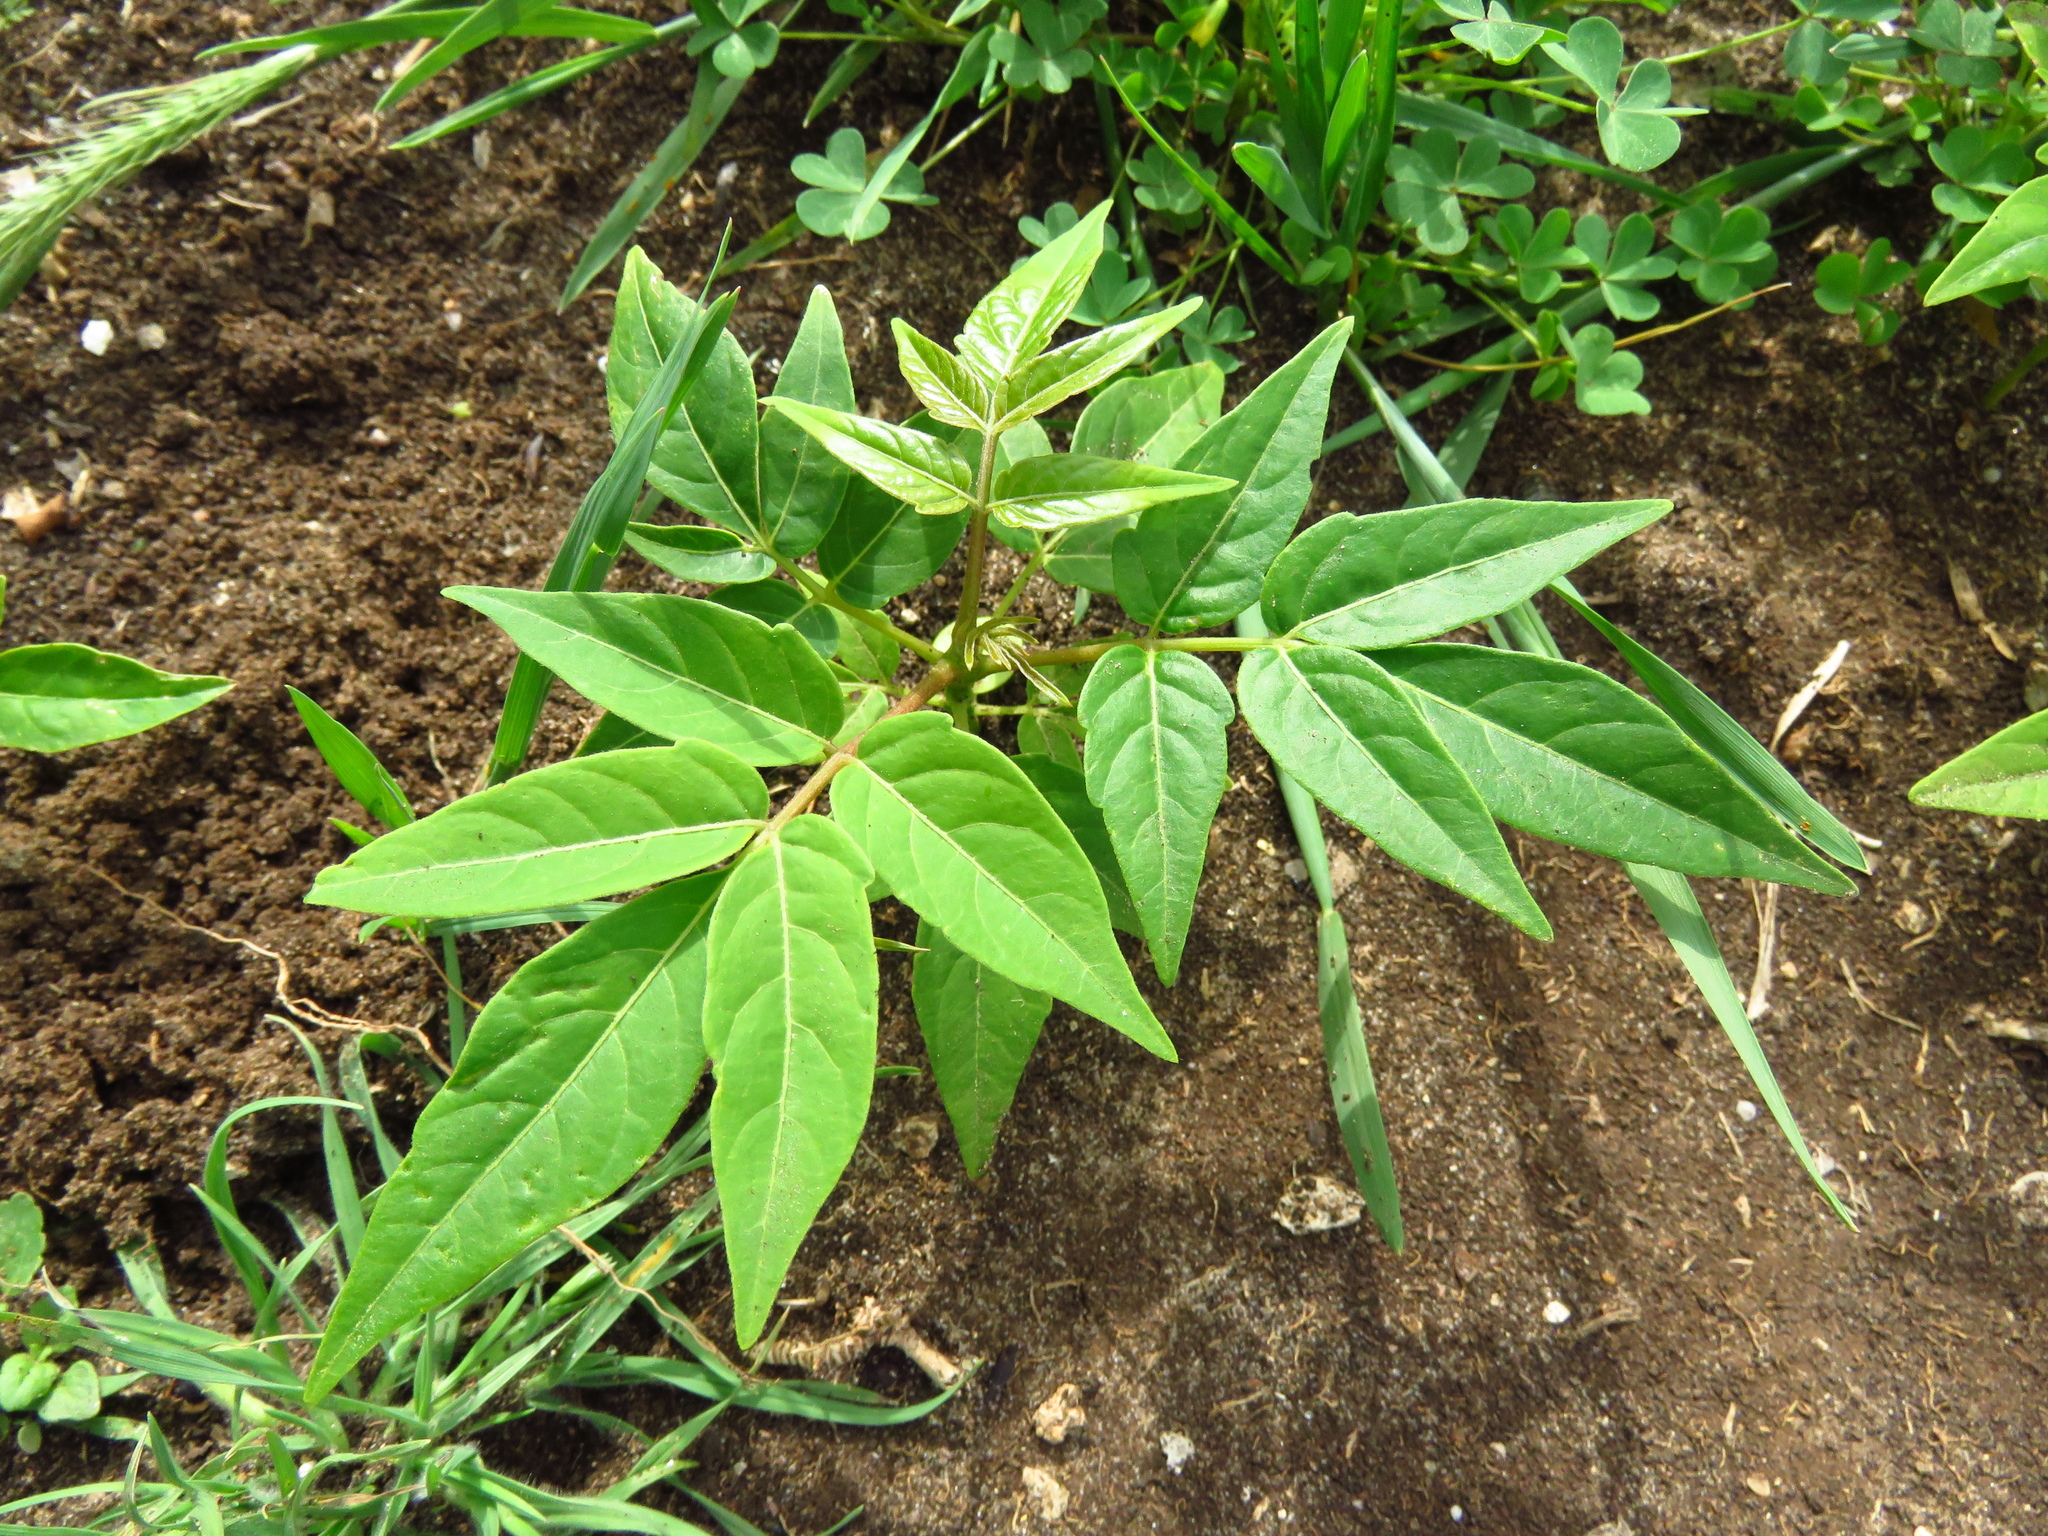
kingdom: Plantae
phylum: Tracheophyta
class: Magnoliopsida
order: Sapindales
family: Simaroubaceae
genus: Ailanthus
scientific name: Ailanthus altissima
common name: Tree-of-heaven
